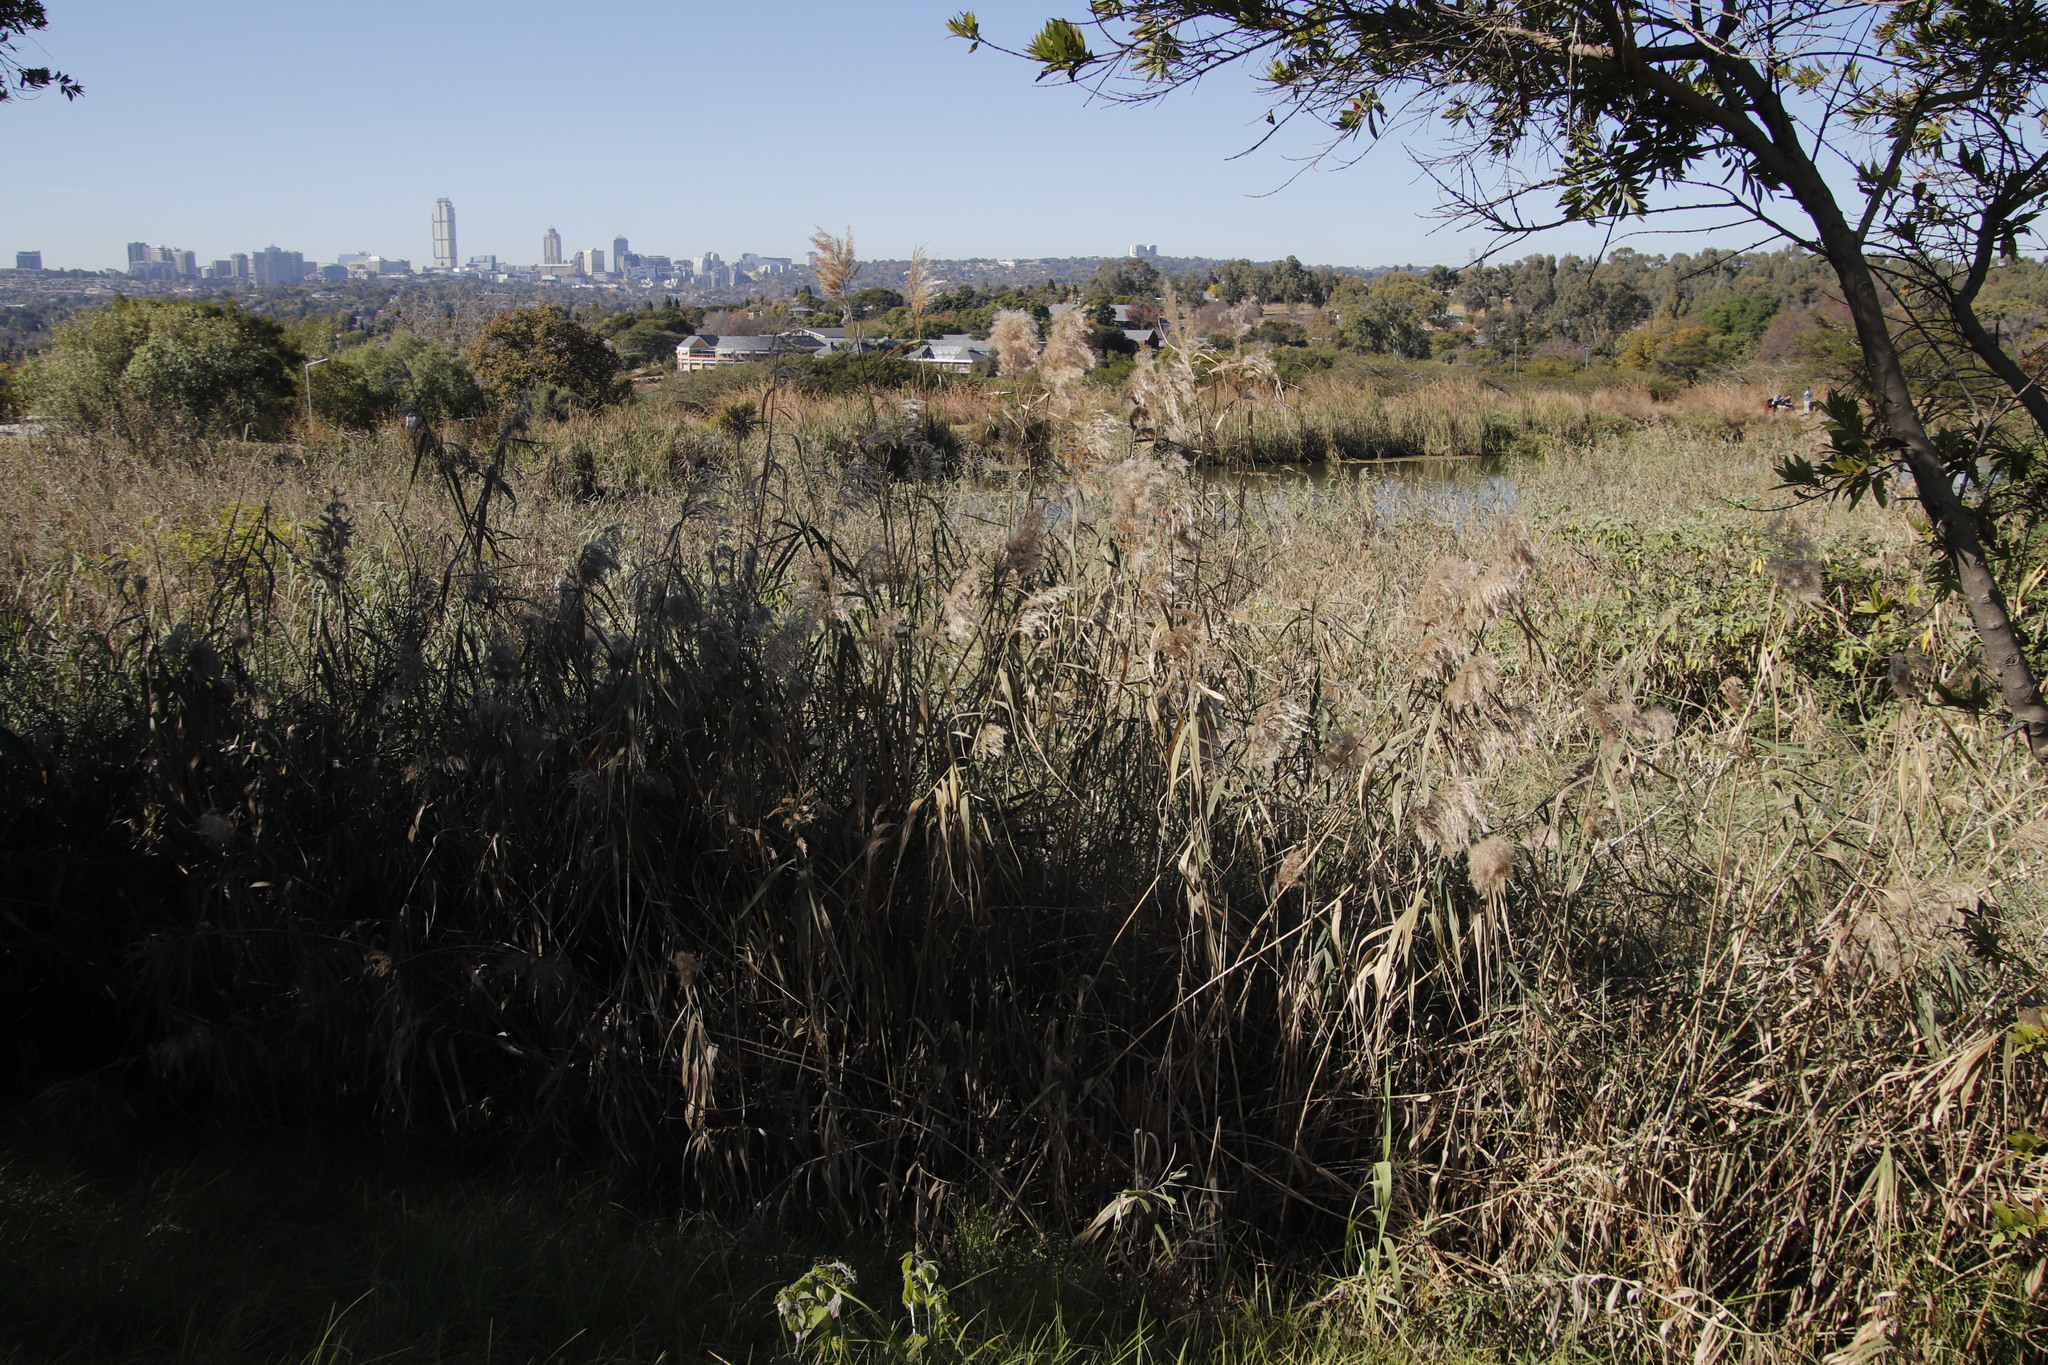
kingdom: Plantae
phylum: Tracheophyta
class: Liliopsida
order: Poales
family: Poaceae
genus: Phragmites
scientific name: Phragmites australis
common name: Common reed
